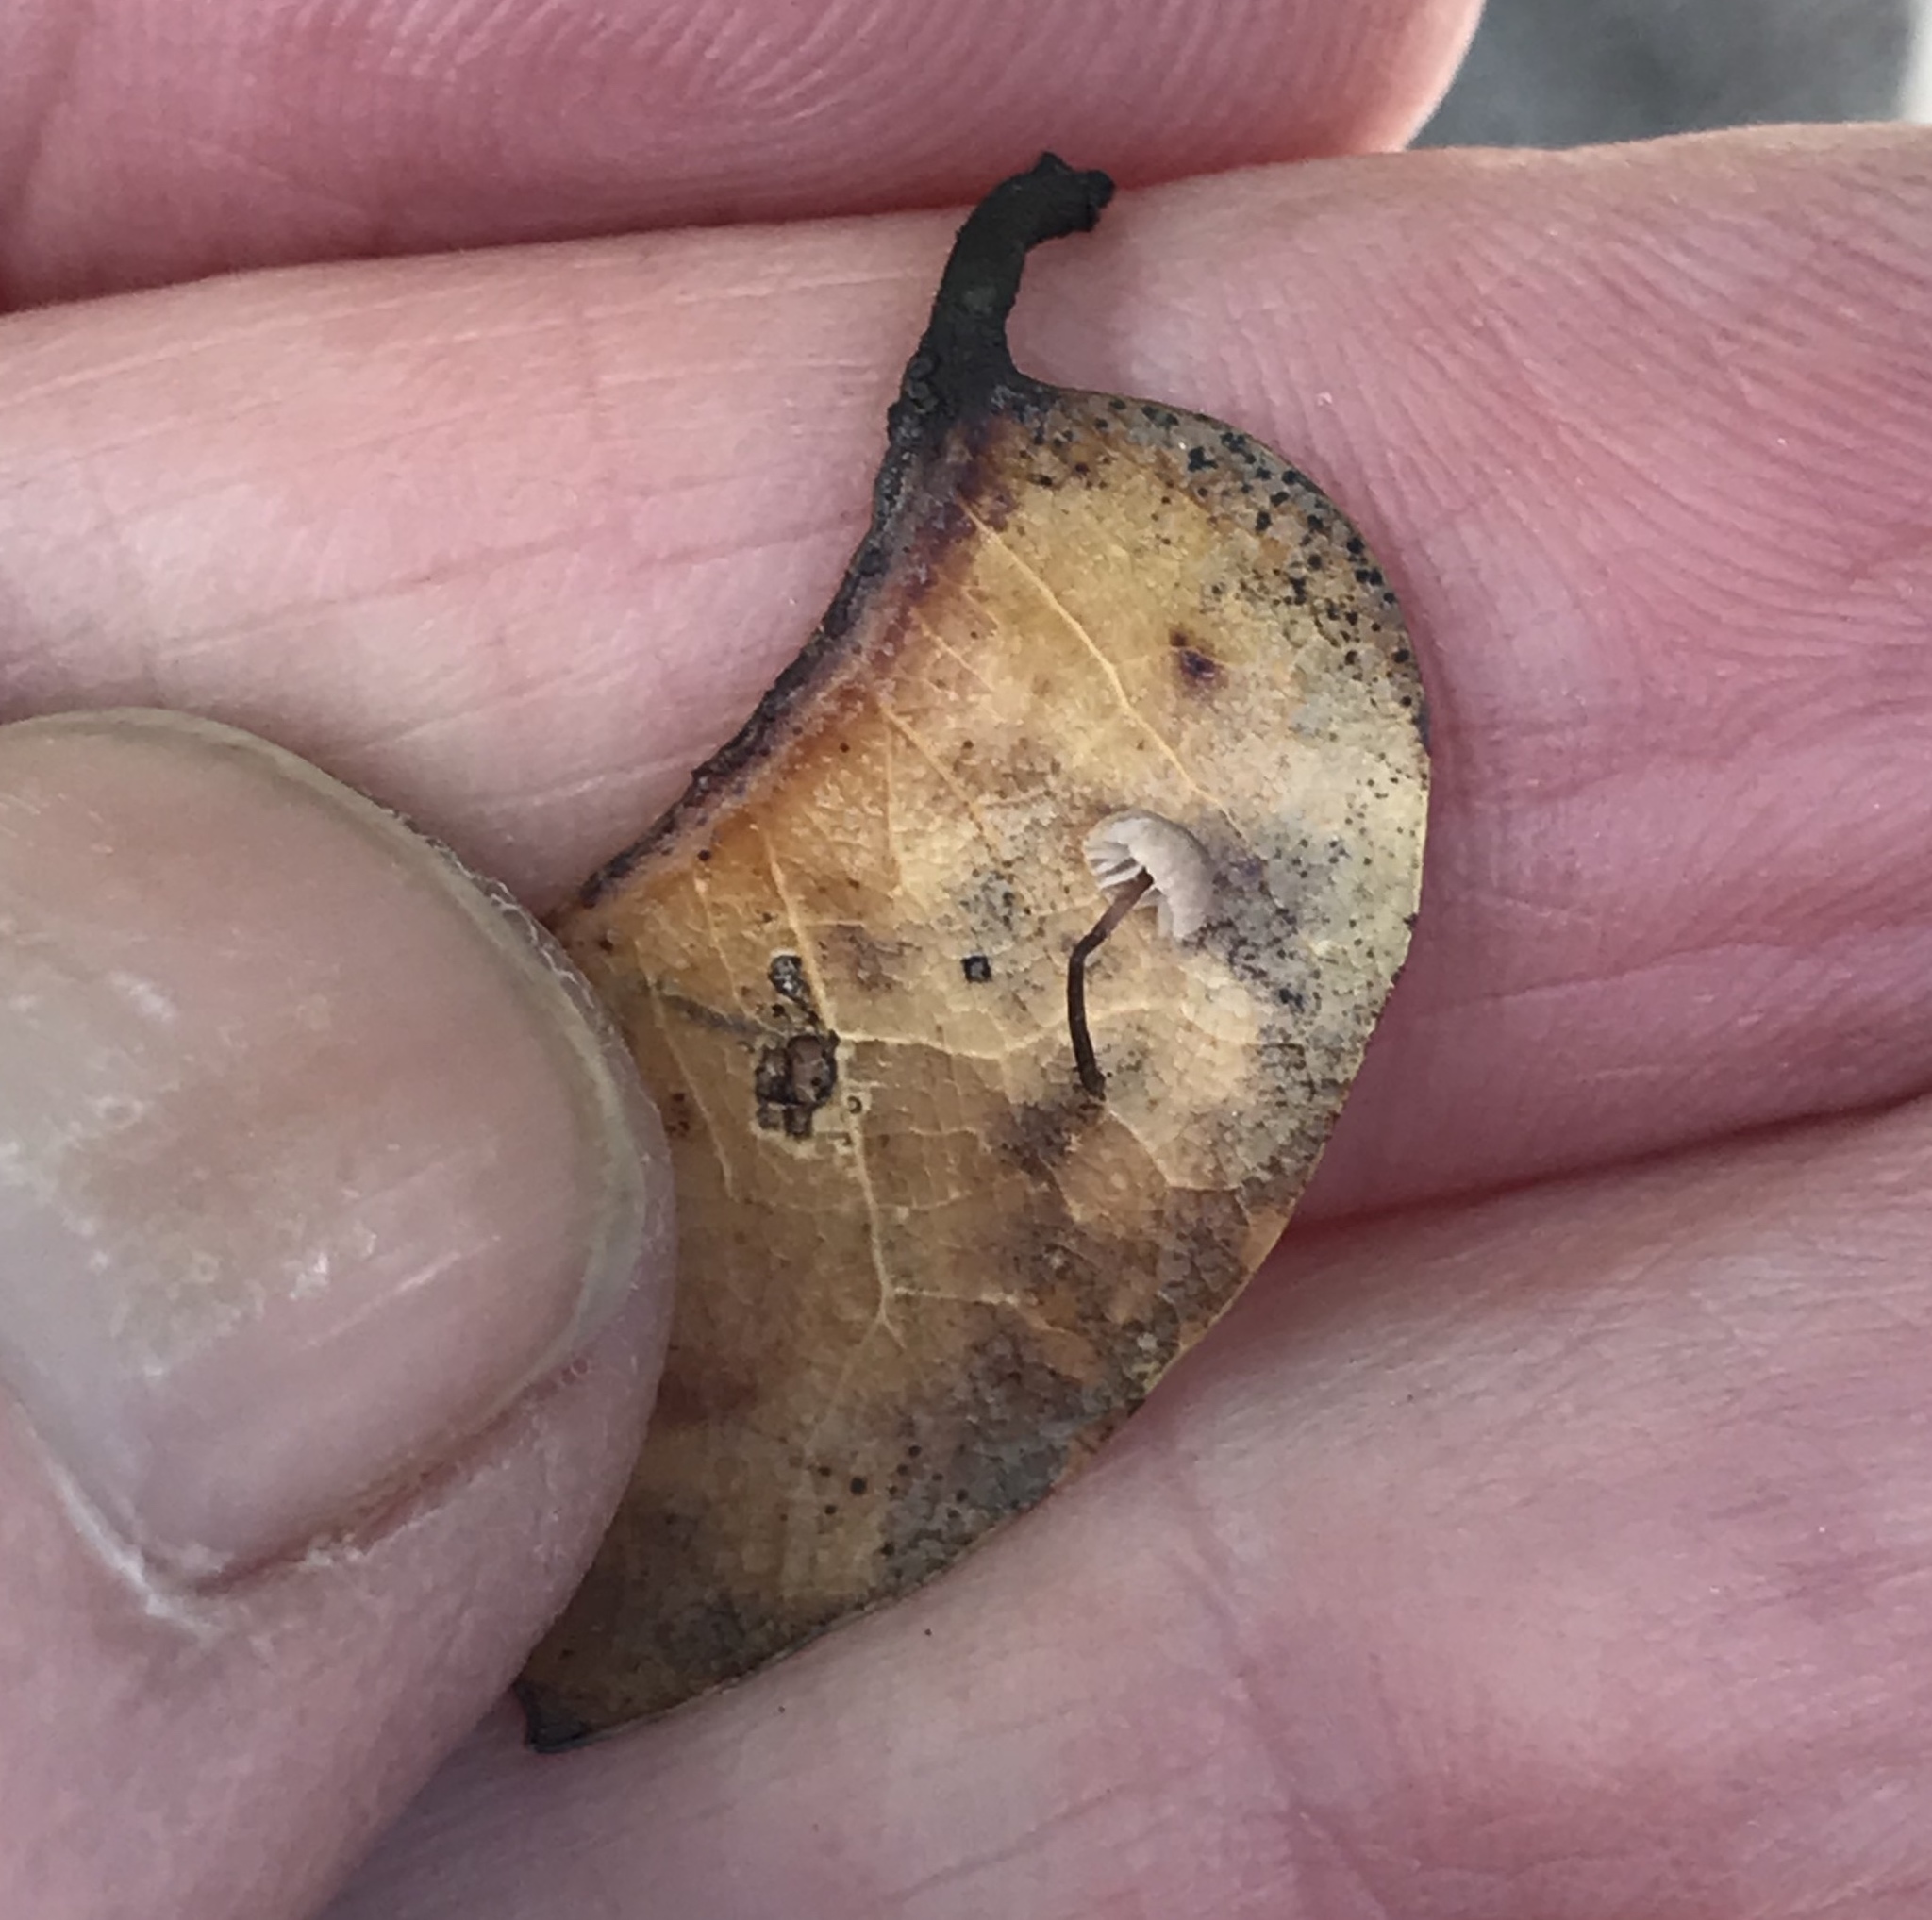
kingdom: Fungi
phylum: Basidiomycota
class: Agaricomycetes
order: Agaricales
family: Omphalotaceae
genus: Collybiopsis
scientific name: Collybiopsis quercophila
